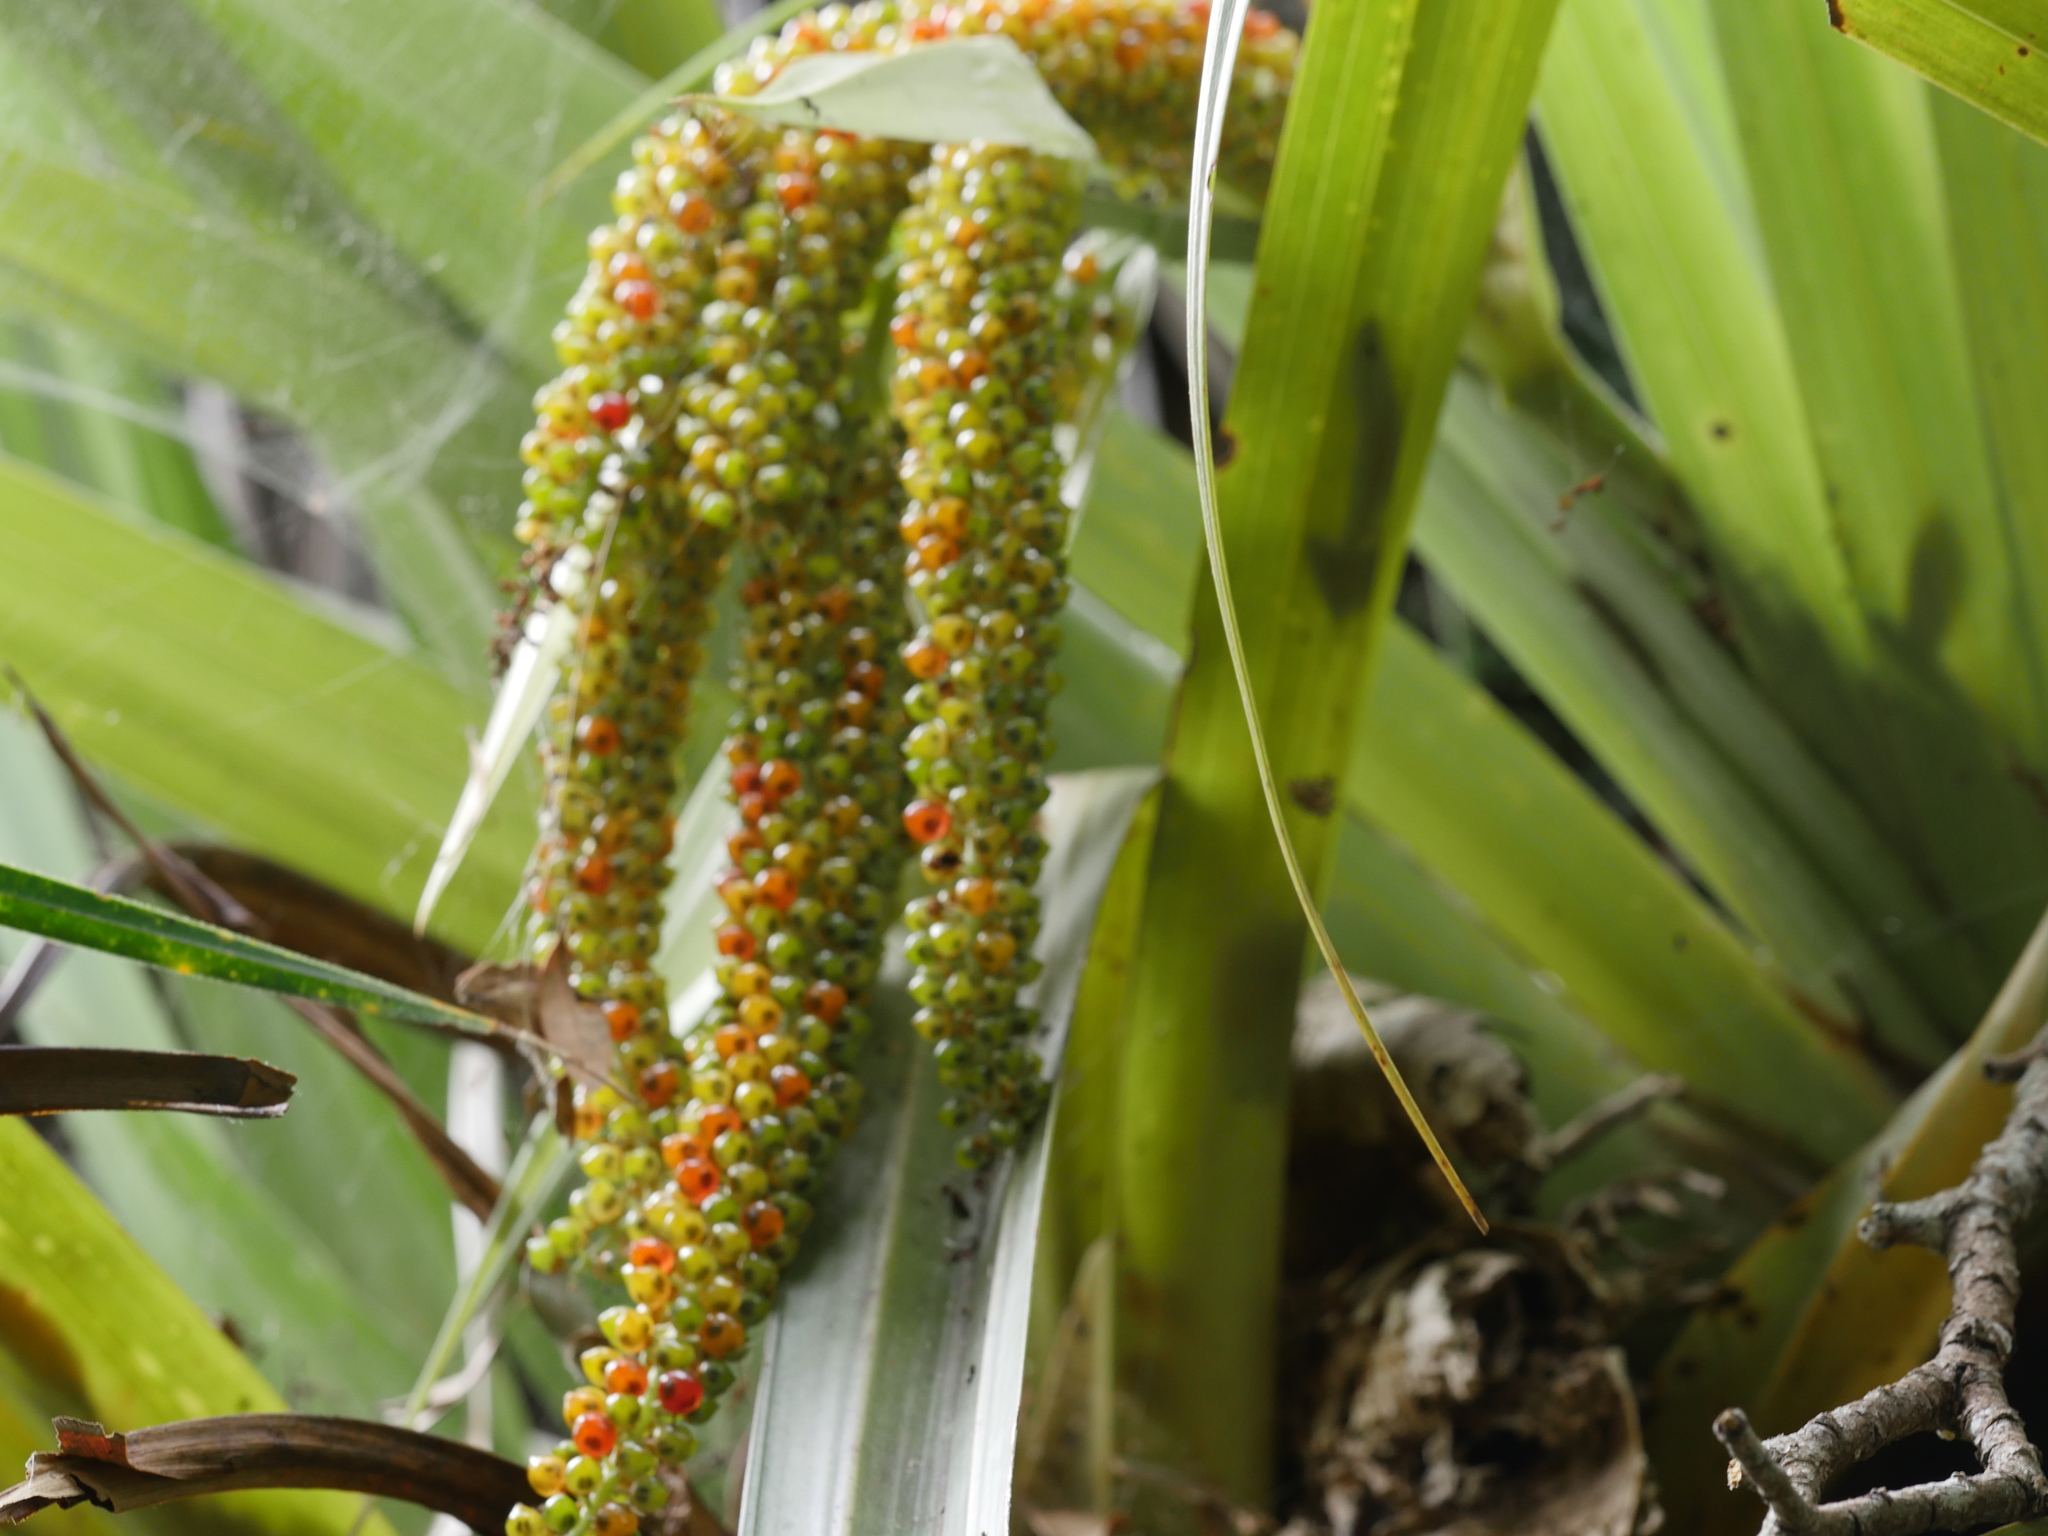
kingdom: Plantae
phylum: Tracheophyta
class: Liliopsida
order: Asparagales
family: Asteliaceae
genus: Astelia
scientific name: Astelia hastata
